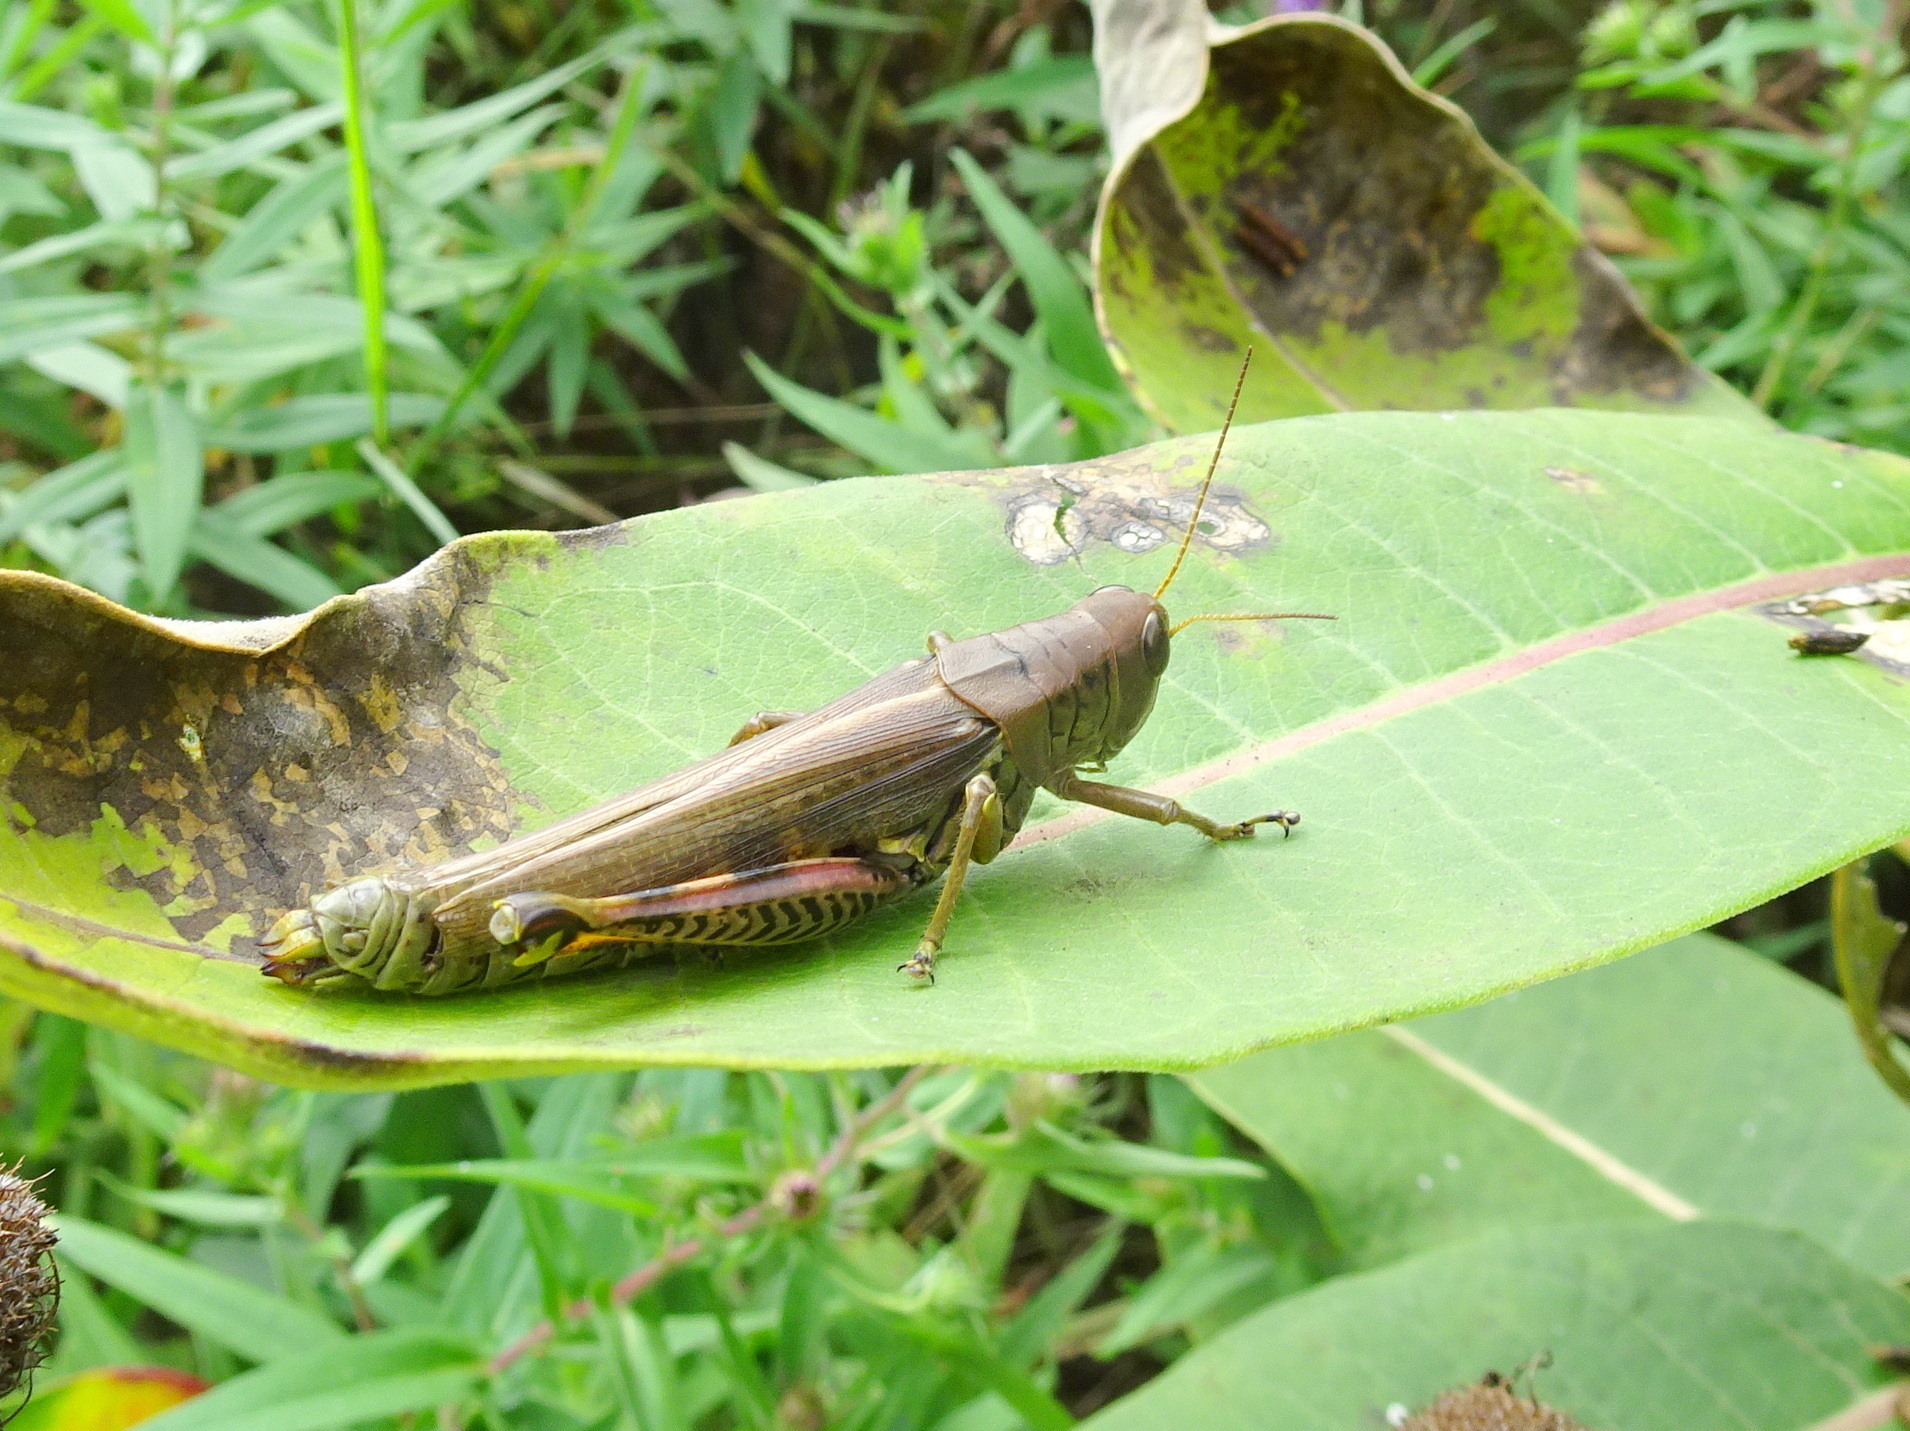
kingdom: Animalia
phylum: Arthropoda
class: Insecta
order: Orthoptera
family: Acrididae
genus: Melanoplus
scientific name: Melanoplus differentialis
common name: Differential grasshopper
